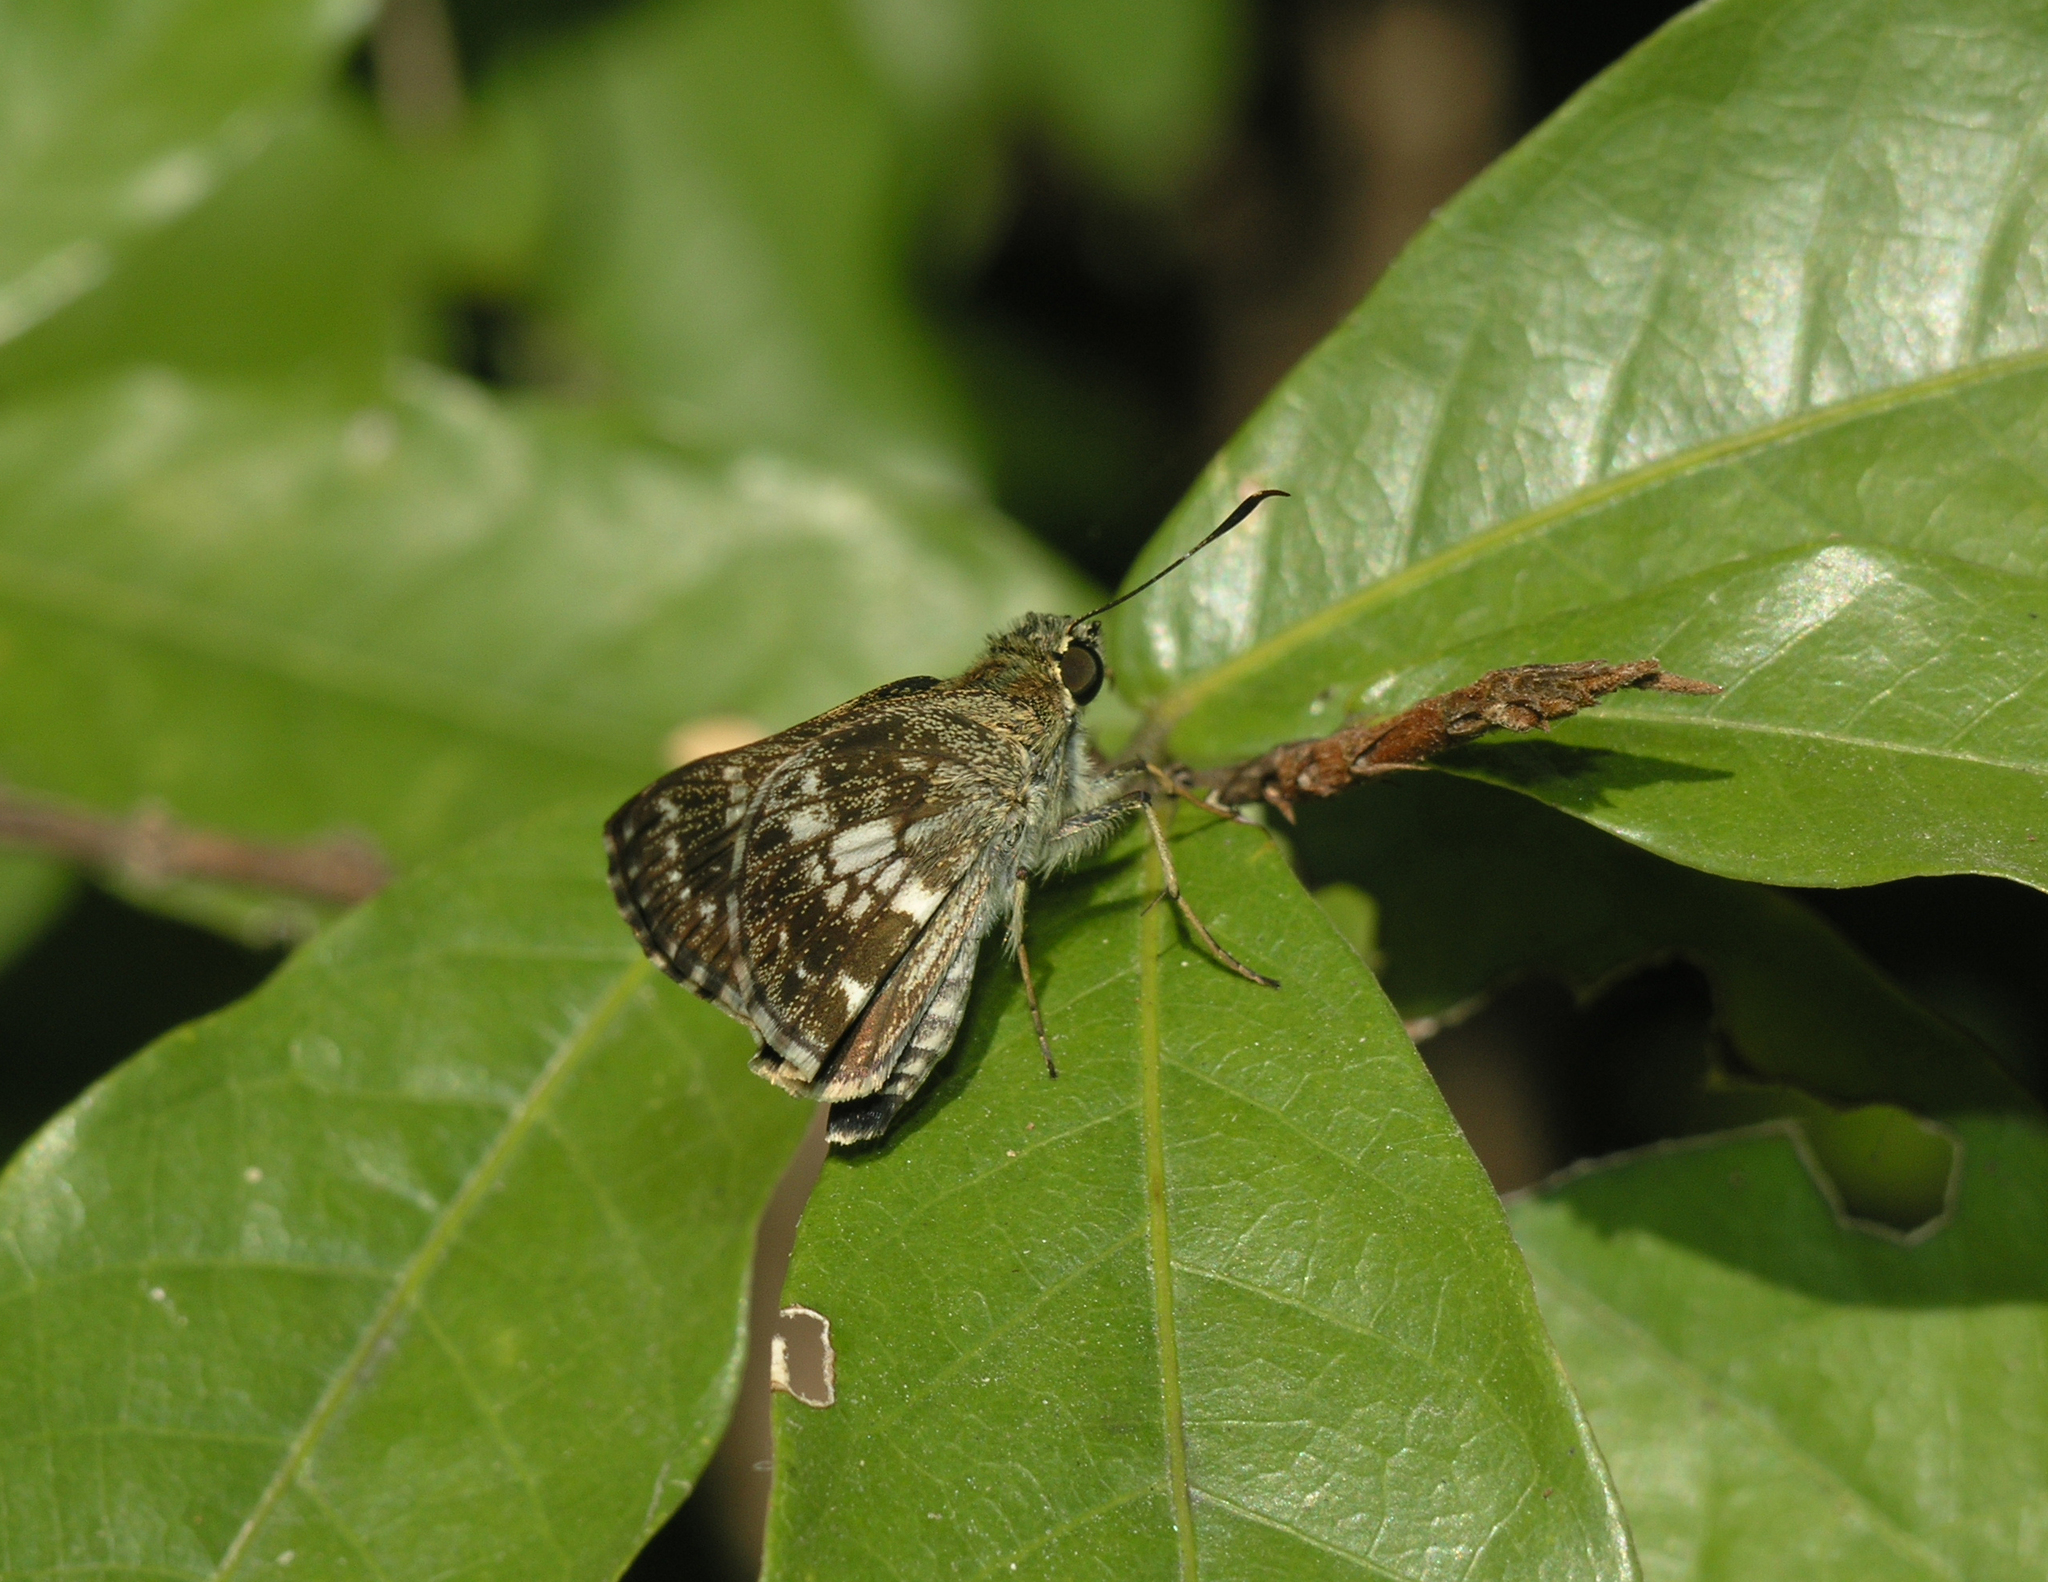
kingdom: Animalia
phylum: Arthropoda
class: Insecta
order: Lepidoptera
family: Hesperiidae
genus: Halpe
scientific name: Halpe porus
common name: Moore's ace
